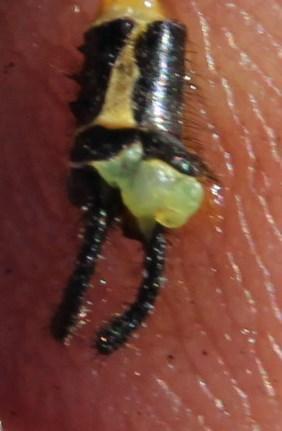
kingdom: Animalia
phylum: Arthropoda
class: Insecta
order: Neuroptera
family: Myrmeleontidae
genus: Pamexis
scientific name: Pamexis lutea
